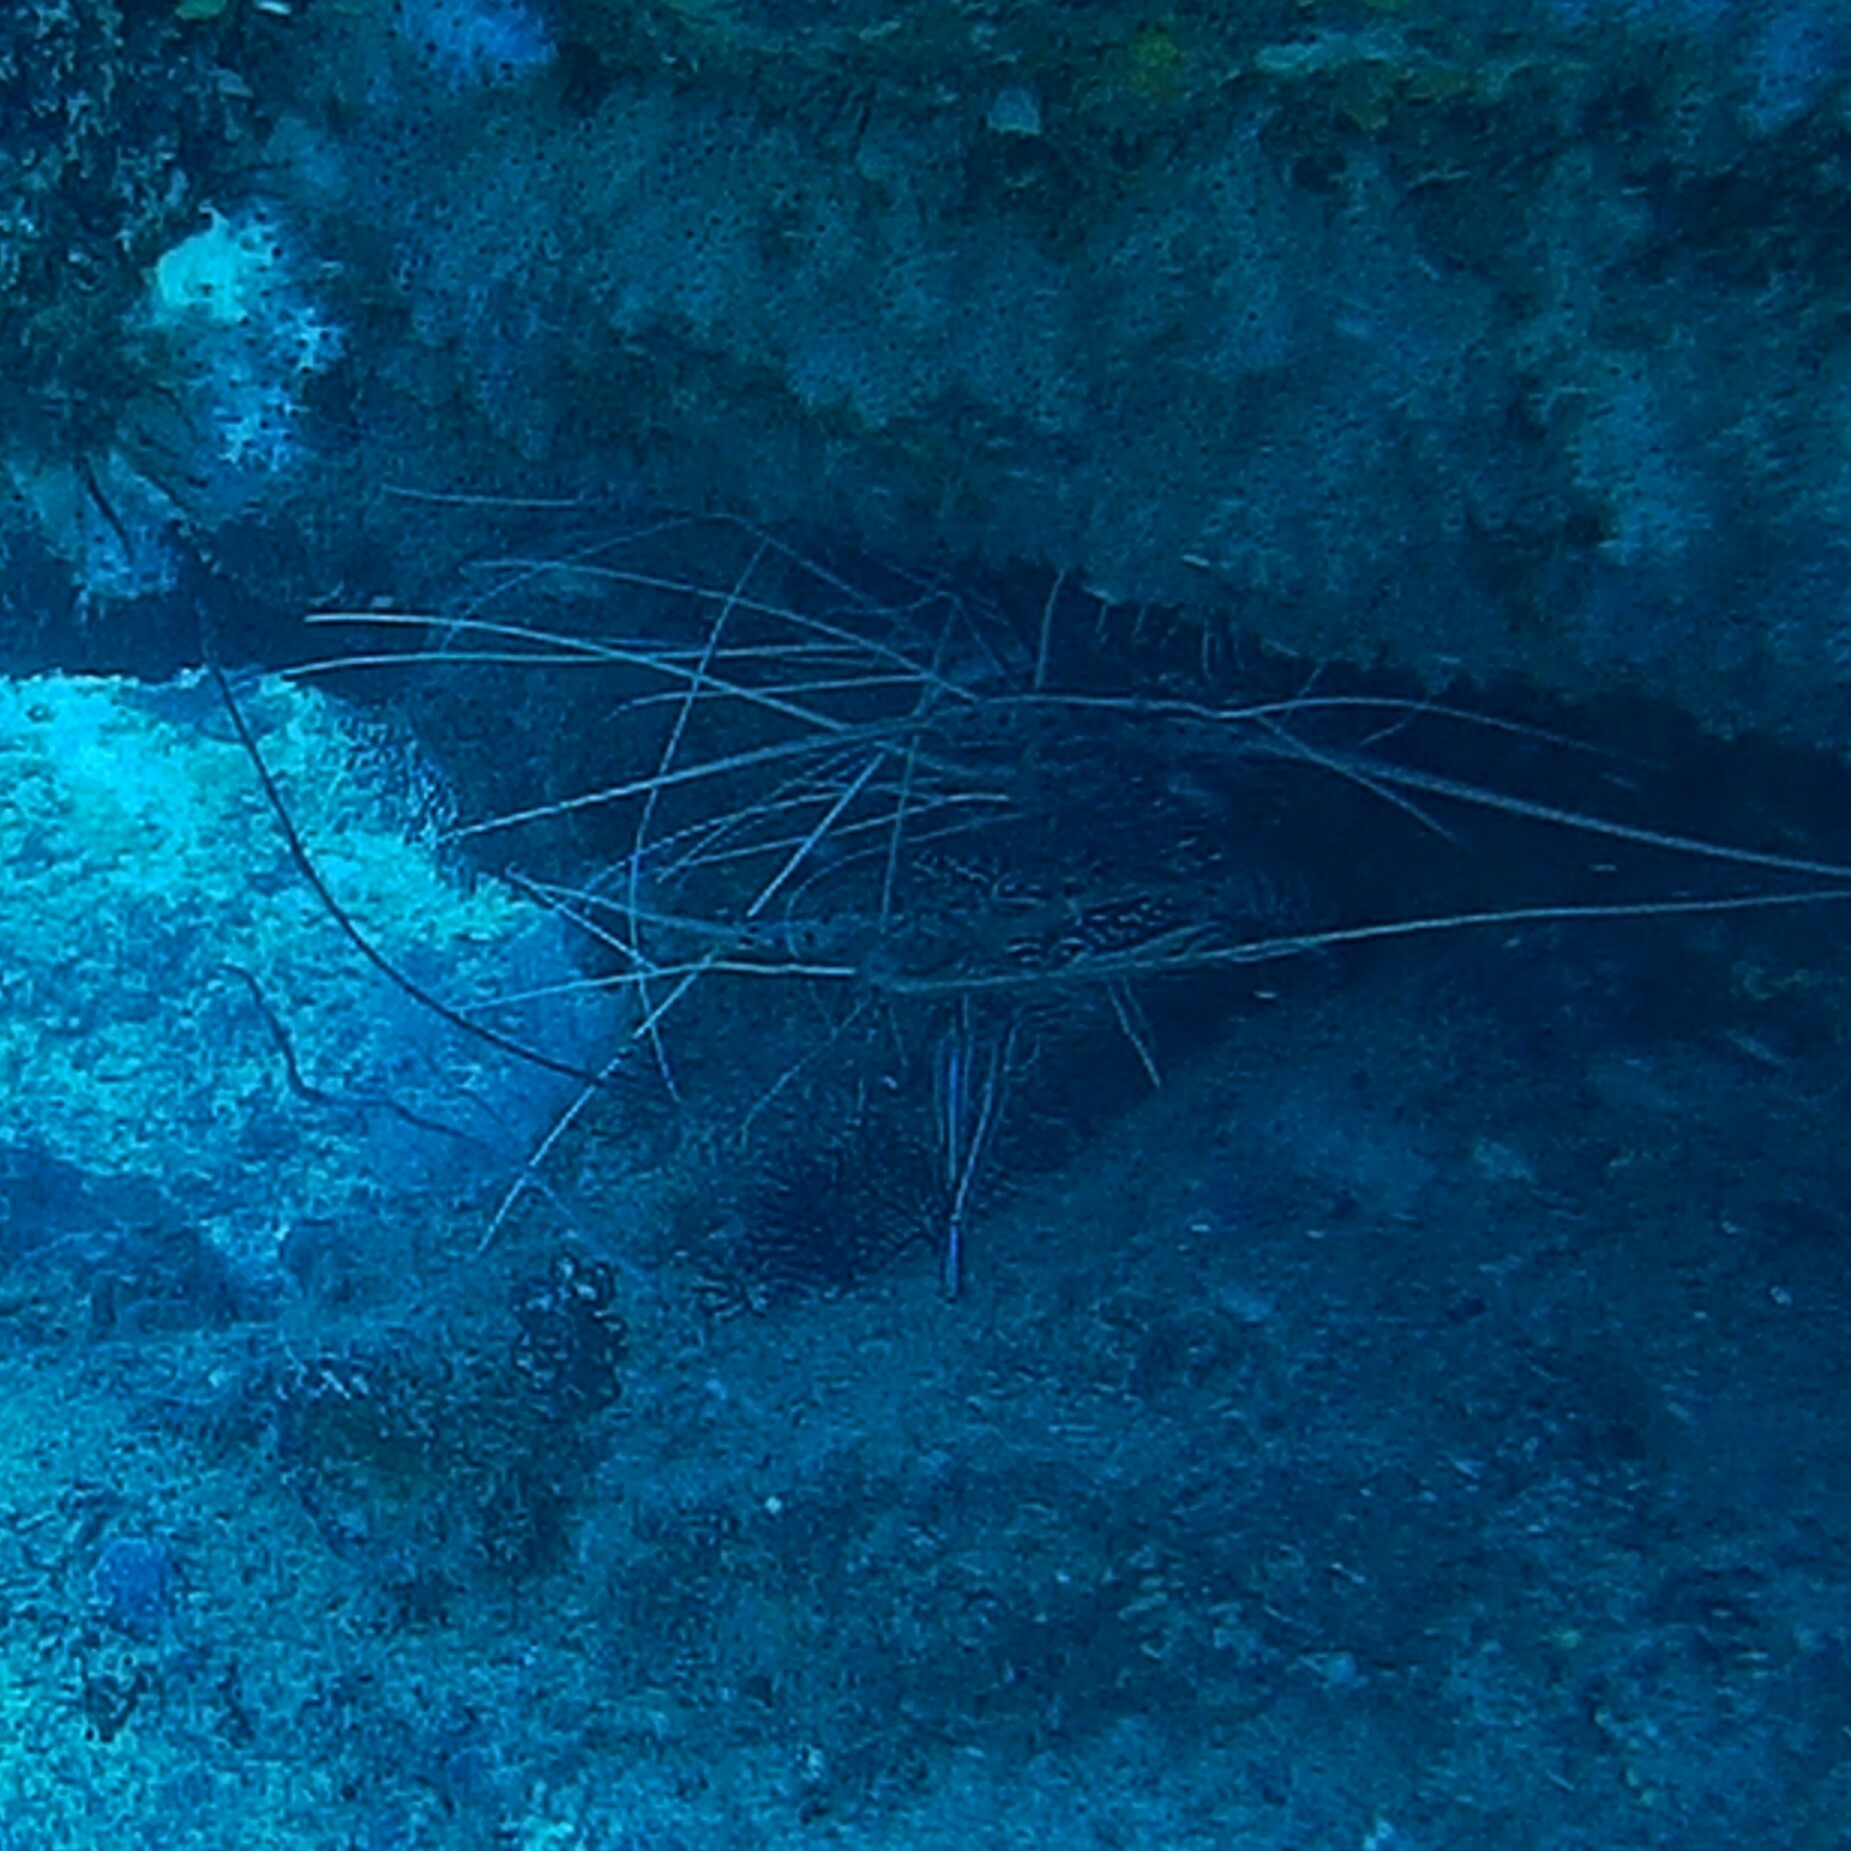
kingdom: Animalia
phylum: Arthropoda
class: Malacostraca
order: Decapoda
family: Palinuridae
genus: Panulirus
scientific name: Panulirus versicolor
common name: Painted spiny lobster
